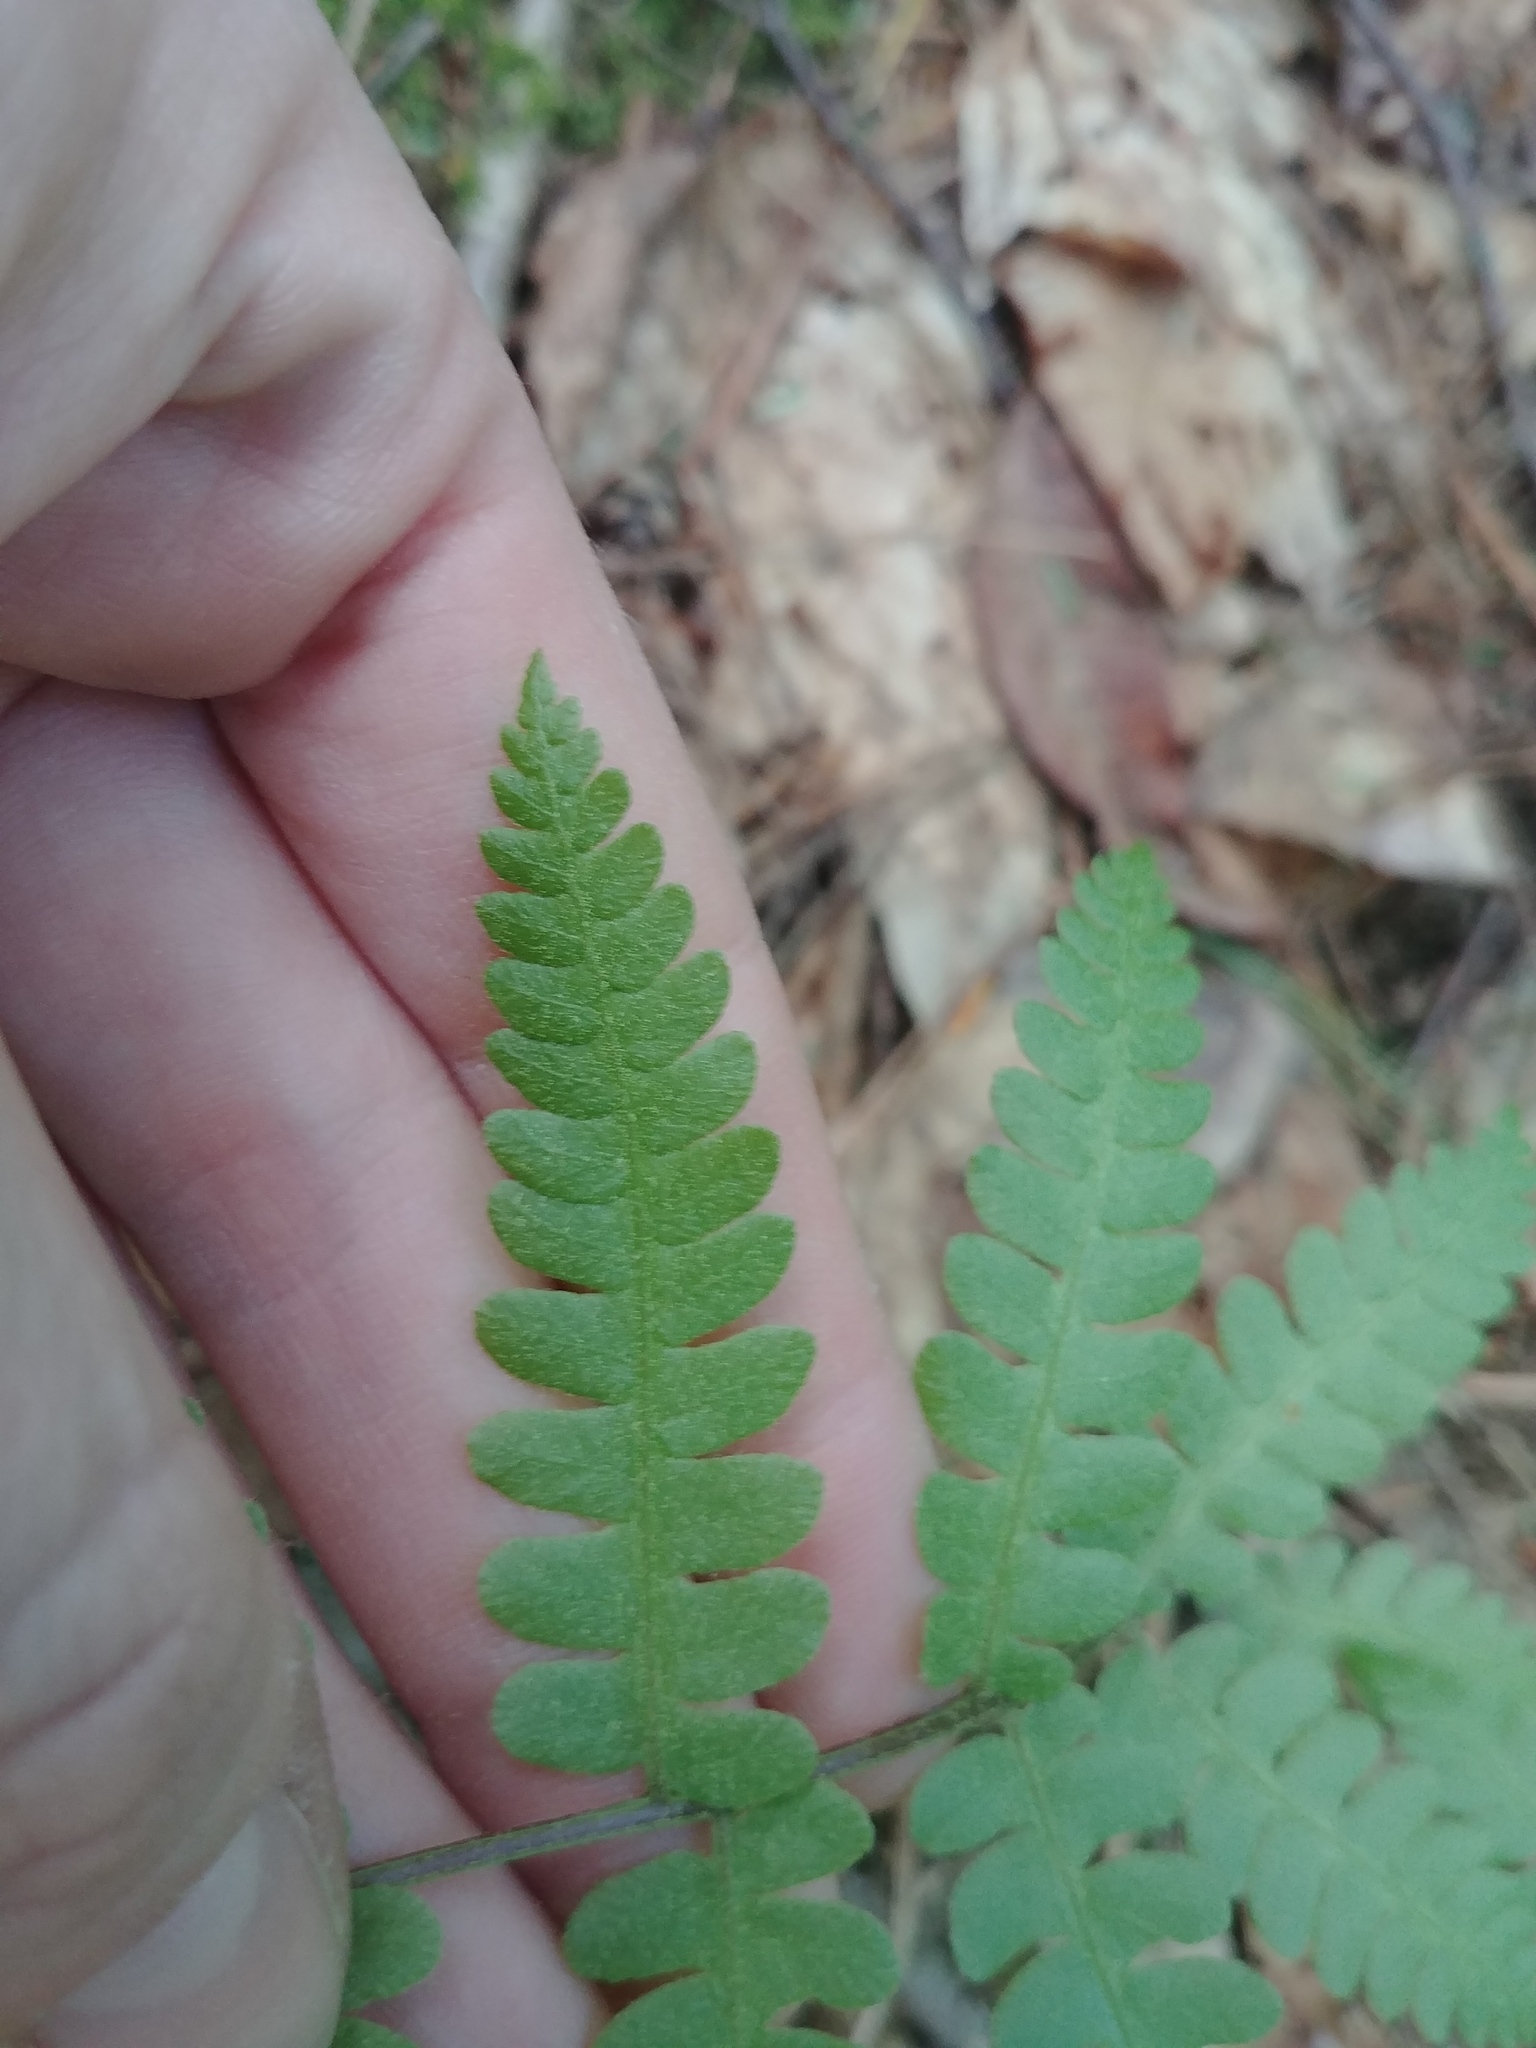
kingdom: Plantae
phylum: Tracheophyta
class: Polypodiopsida
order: Osmundales
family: Osmundaceae
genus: Osmundastrum
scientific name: Osmundastrum cinnamomeum
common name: Cinnamon fern
